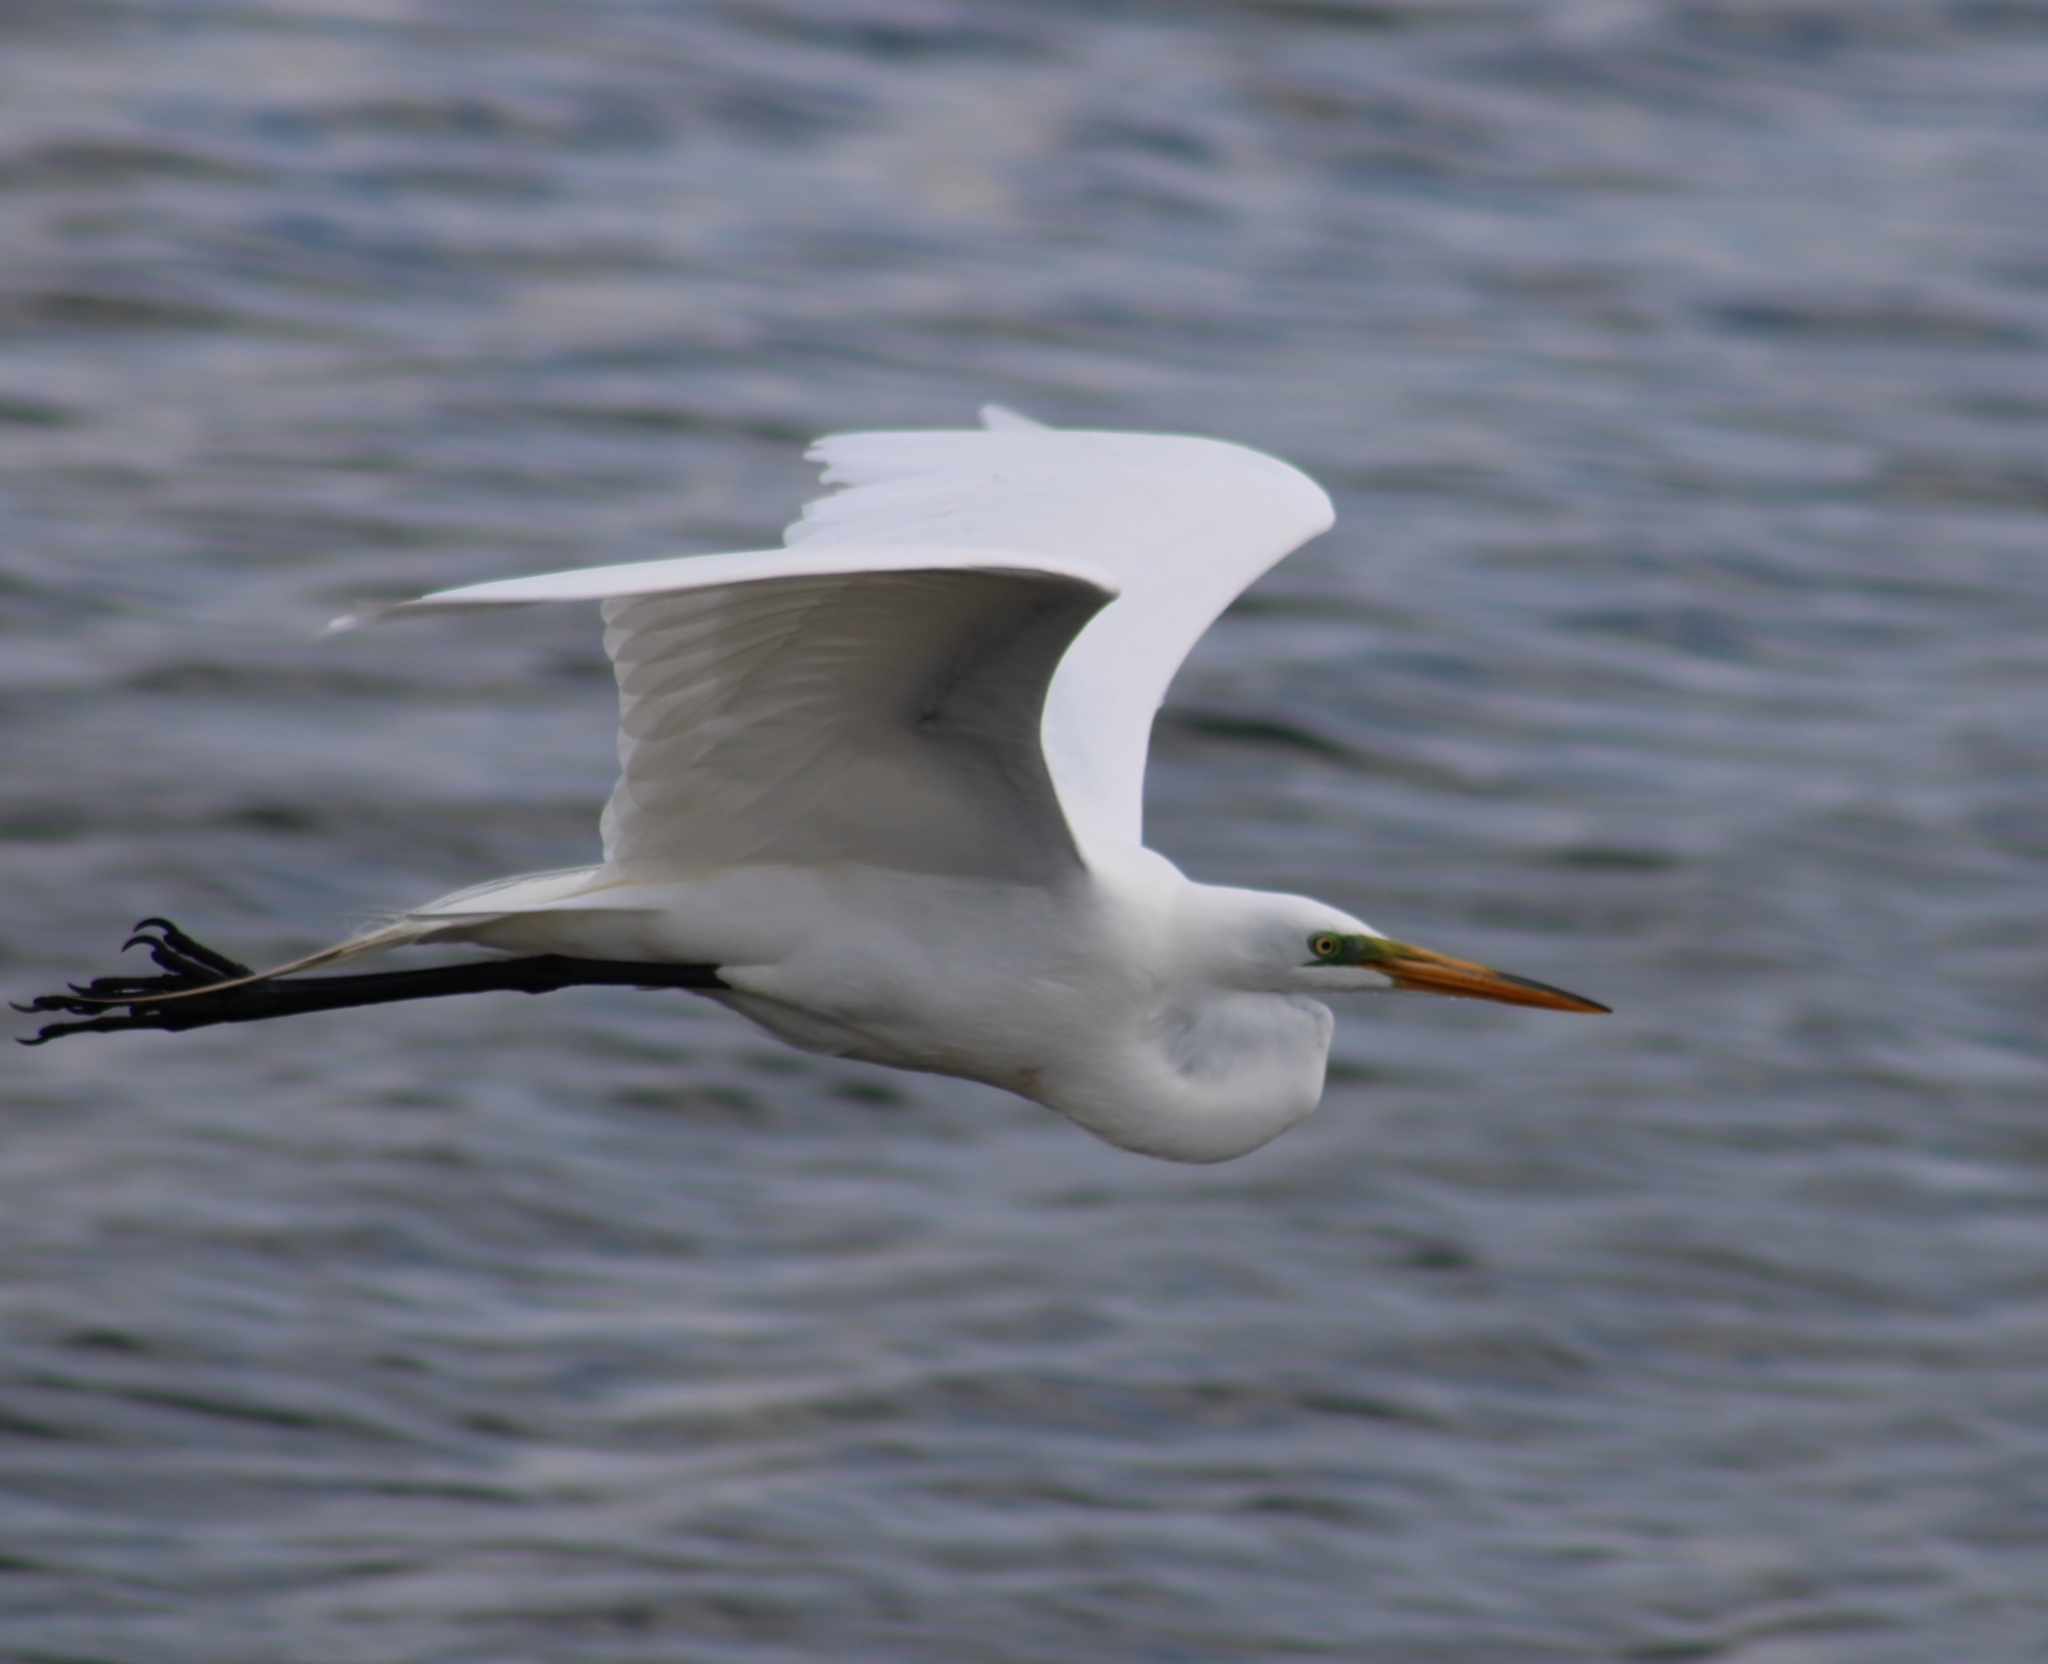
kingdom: Animalia
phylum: Chordata
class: Aves
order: Pelecaniformes
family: Ardeidae
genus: Ardea
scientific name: Ardea alba
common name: Great egret
